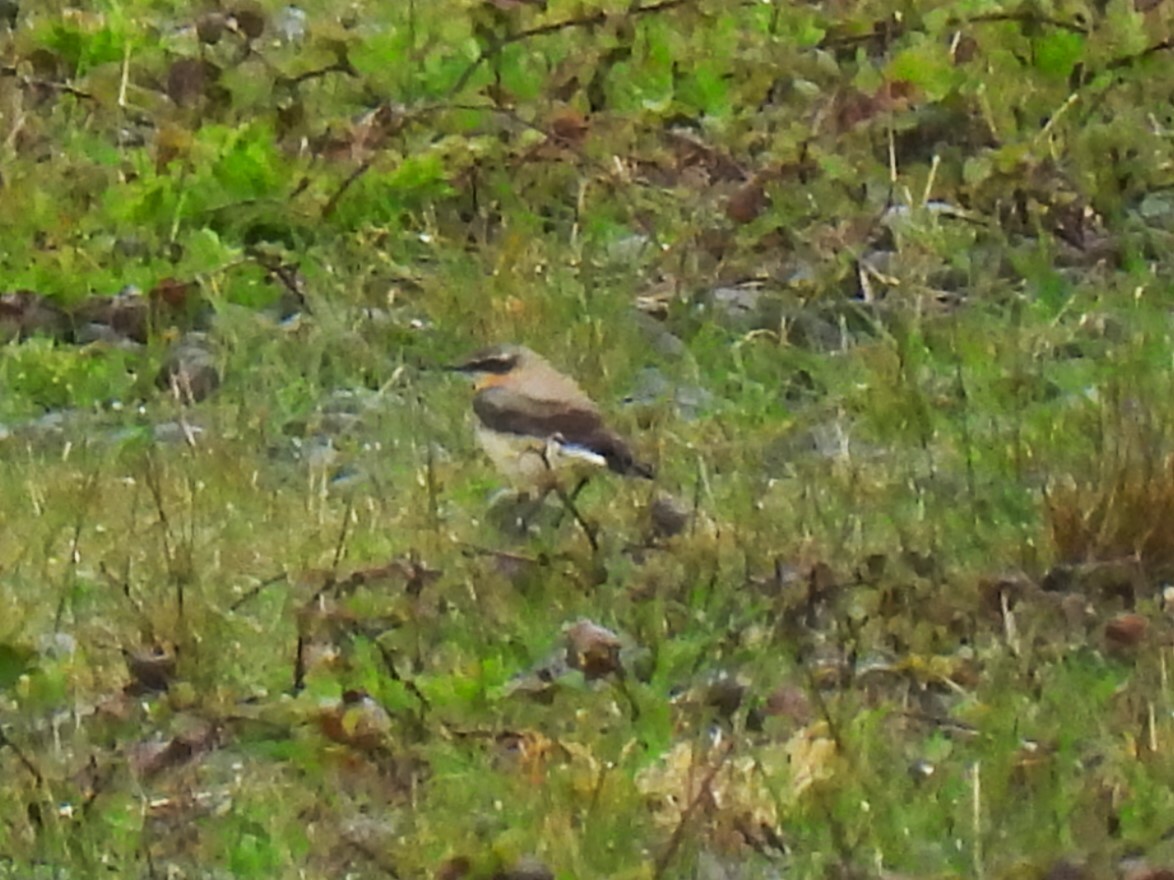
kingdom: Animalia
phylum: Chordata
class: Aves
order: Passeriformes
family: Muscicapidae
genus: Oenanthe
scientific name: Oenanthe oenanthe
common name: Northern wheatear
